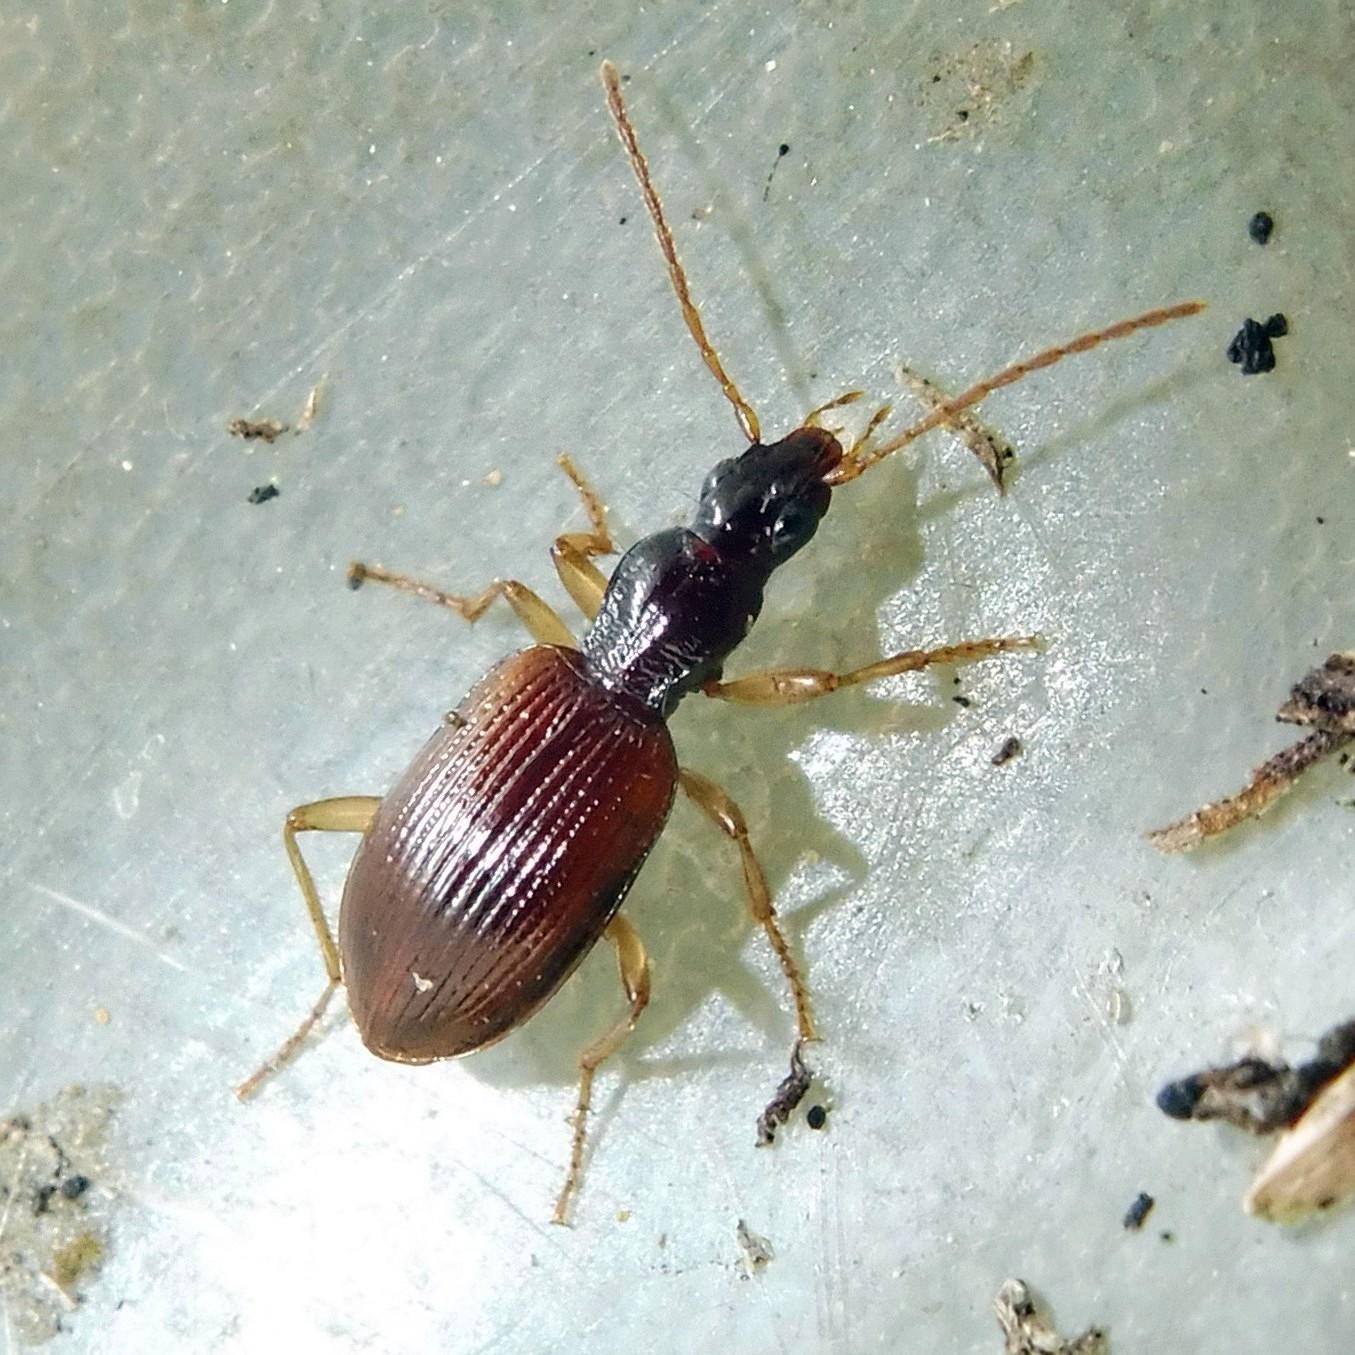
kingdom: Animalia
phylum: Arthropoda
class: Insecta
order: Coleoptera
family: Carabidae
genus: Oxypselaphus
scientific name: Oxypselaphus obscurus
